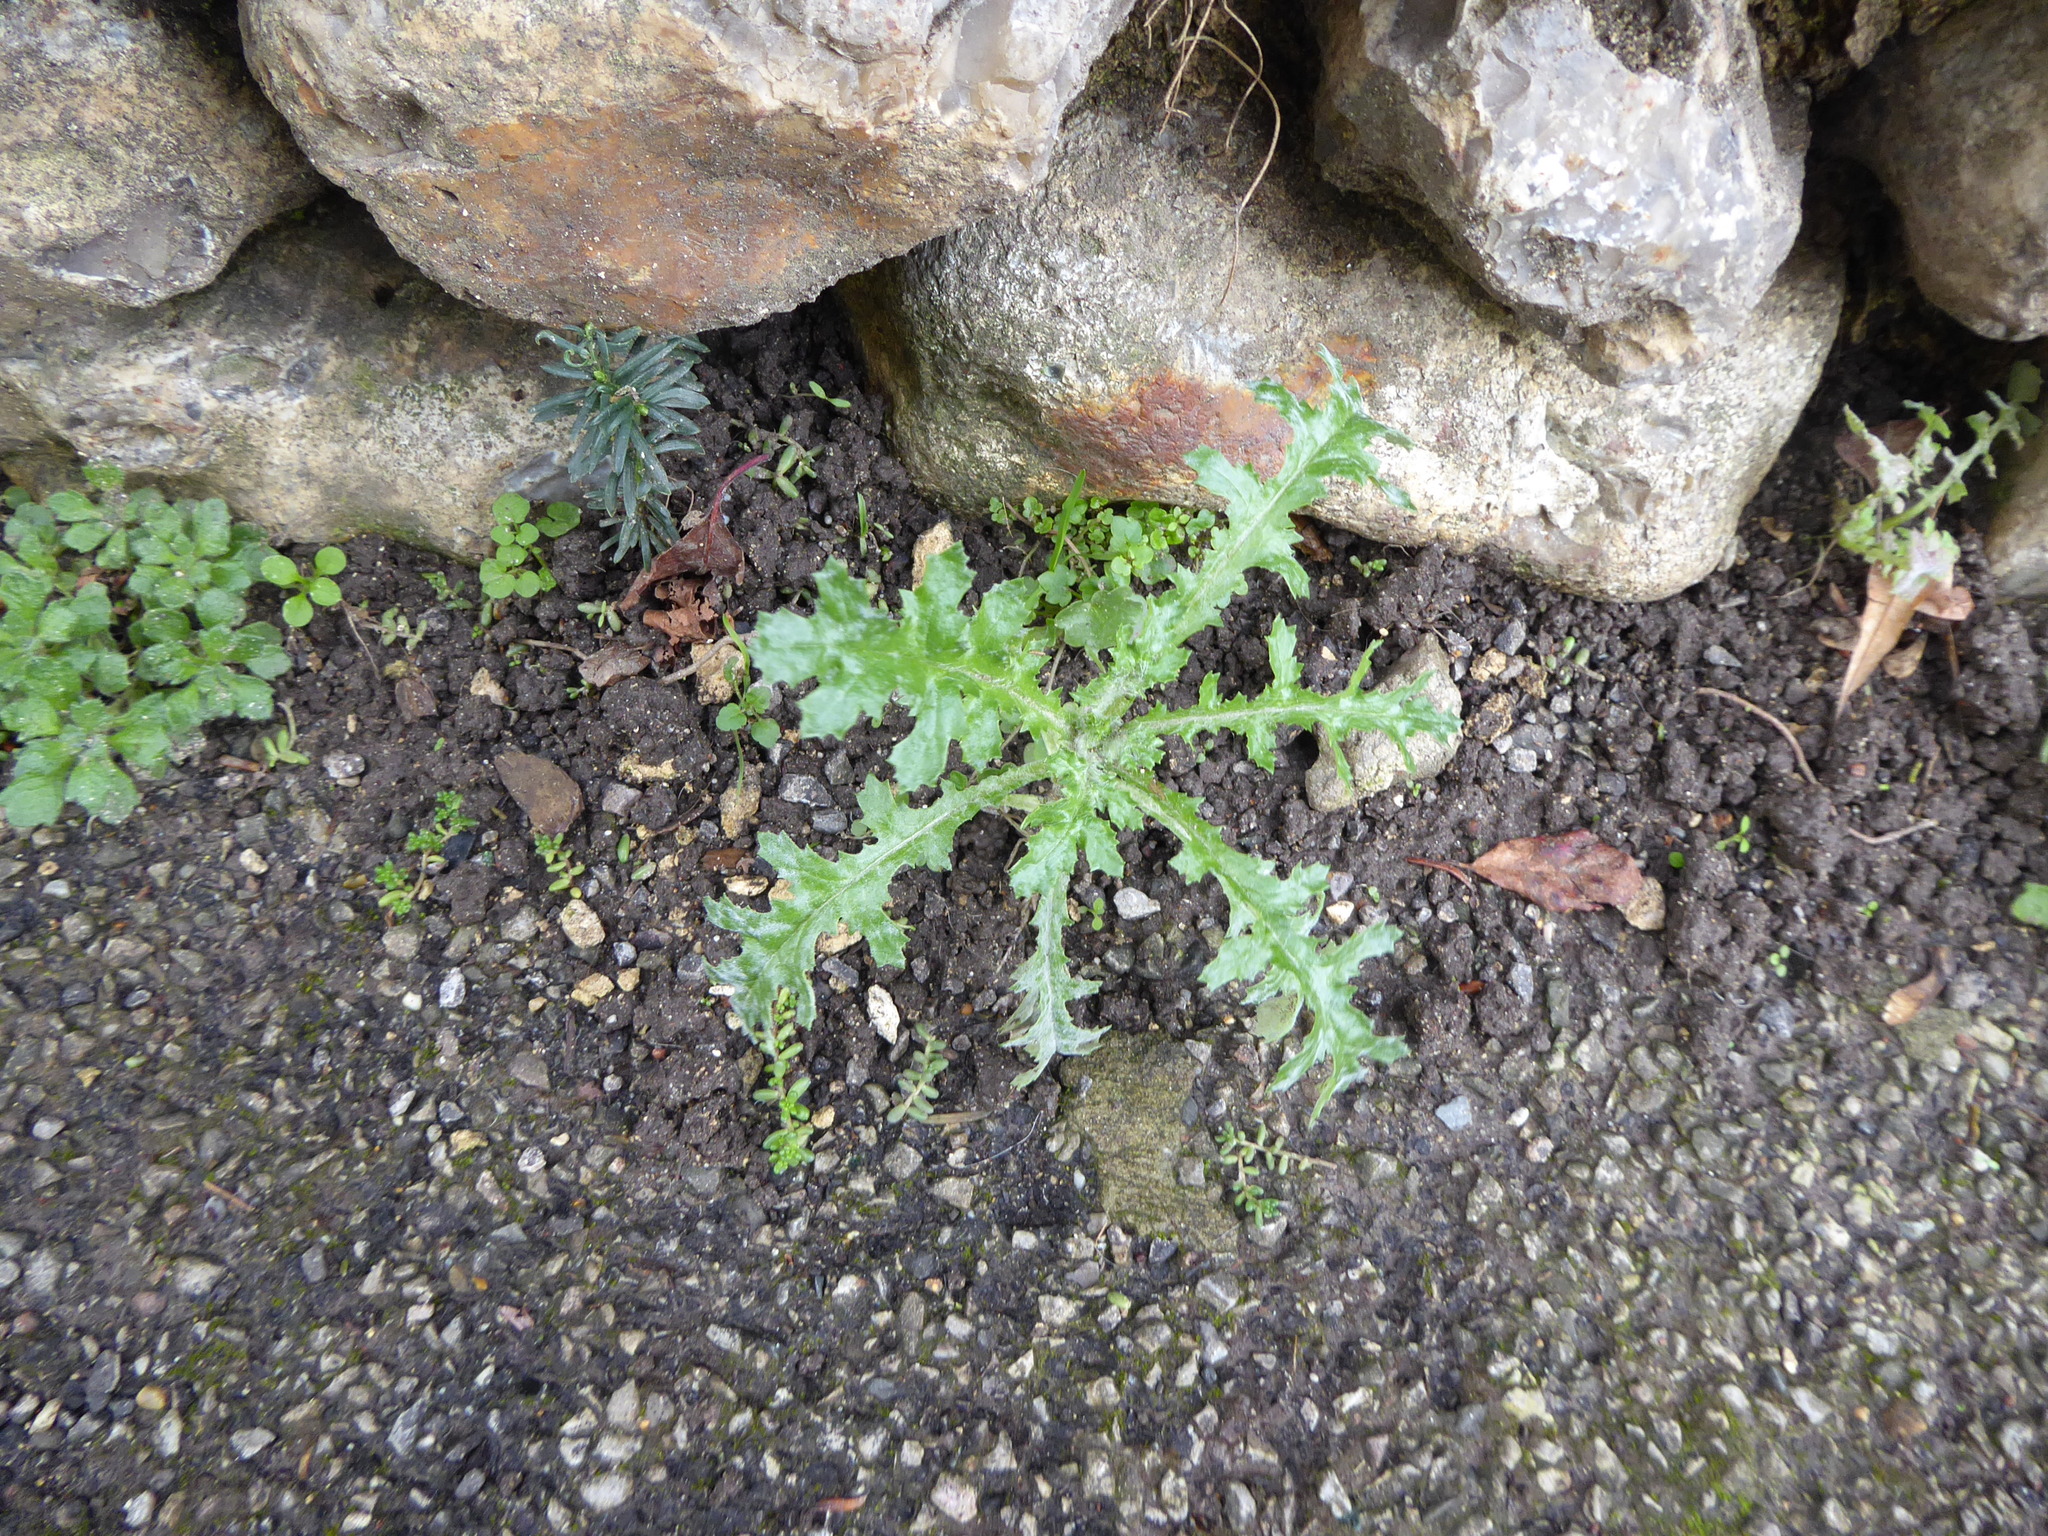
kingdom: Plantae
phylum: Tracheophyta
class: Magnoliopsida
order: Asterales
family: Asteraceae
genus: Senecio
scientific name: Senecio vulgaris
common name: Old-man-in-the-spring
